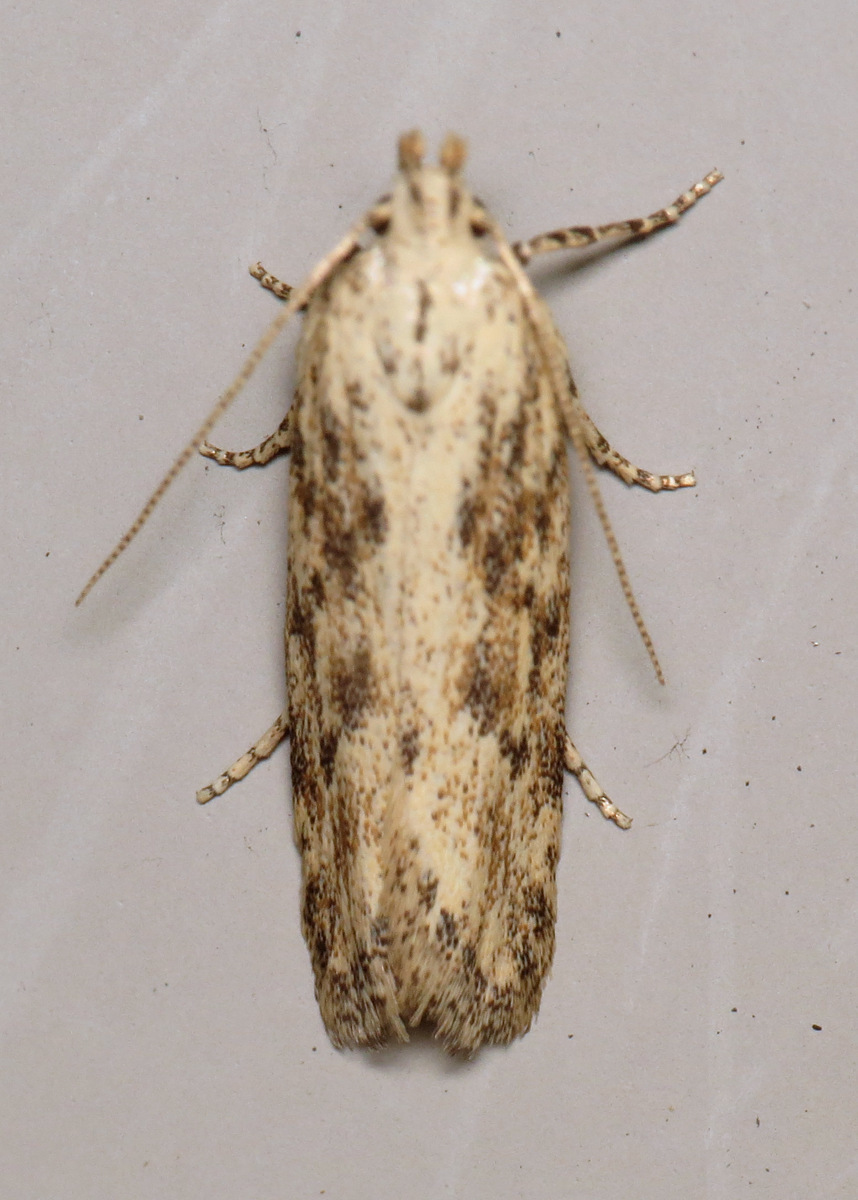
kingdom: Animalia
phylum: Arthropoda
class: Insecta
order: Lepidoptera
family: Gelechiidae
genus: Frumenta
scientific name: Frumenta nundinella
